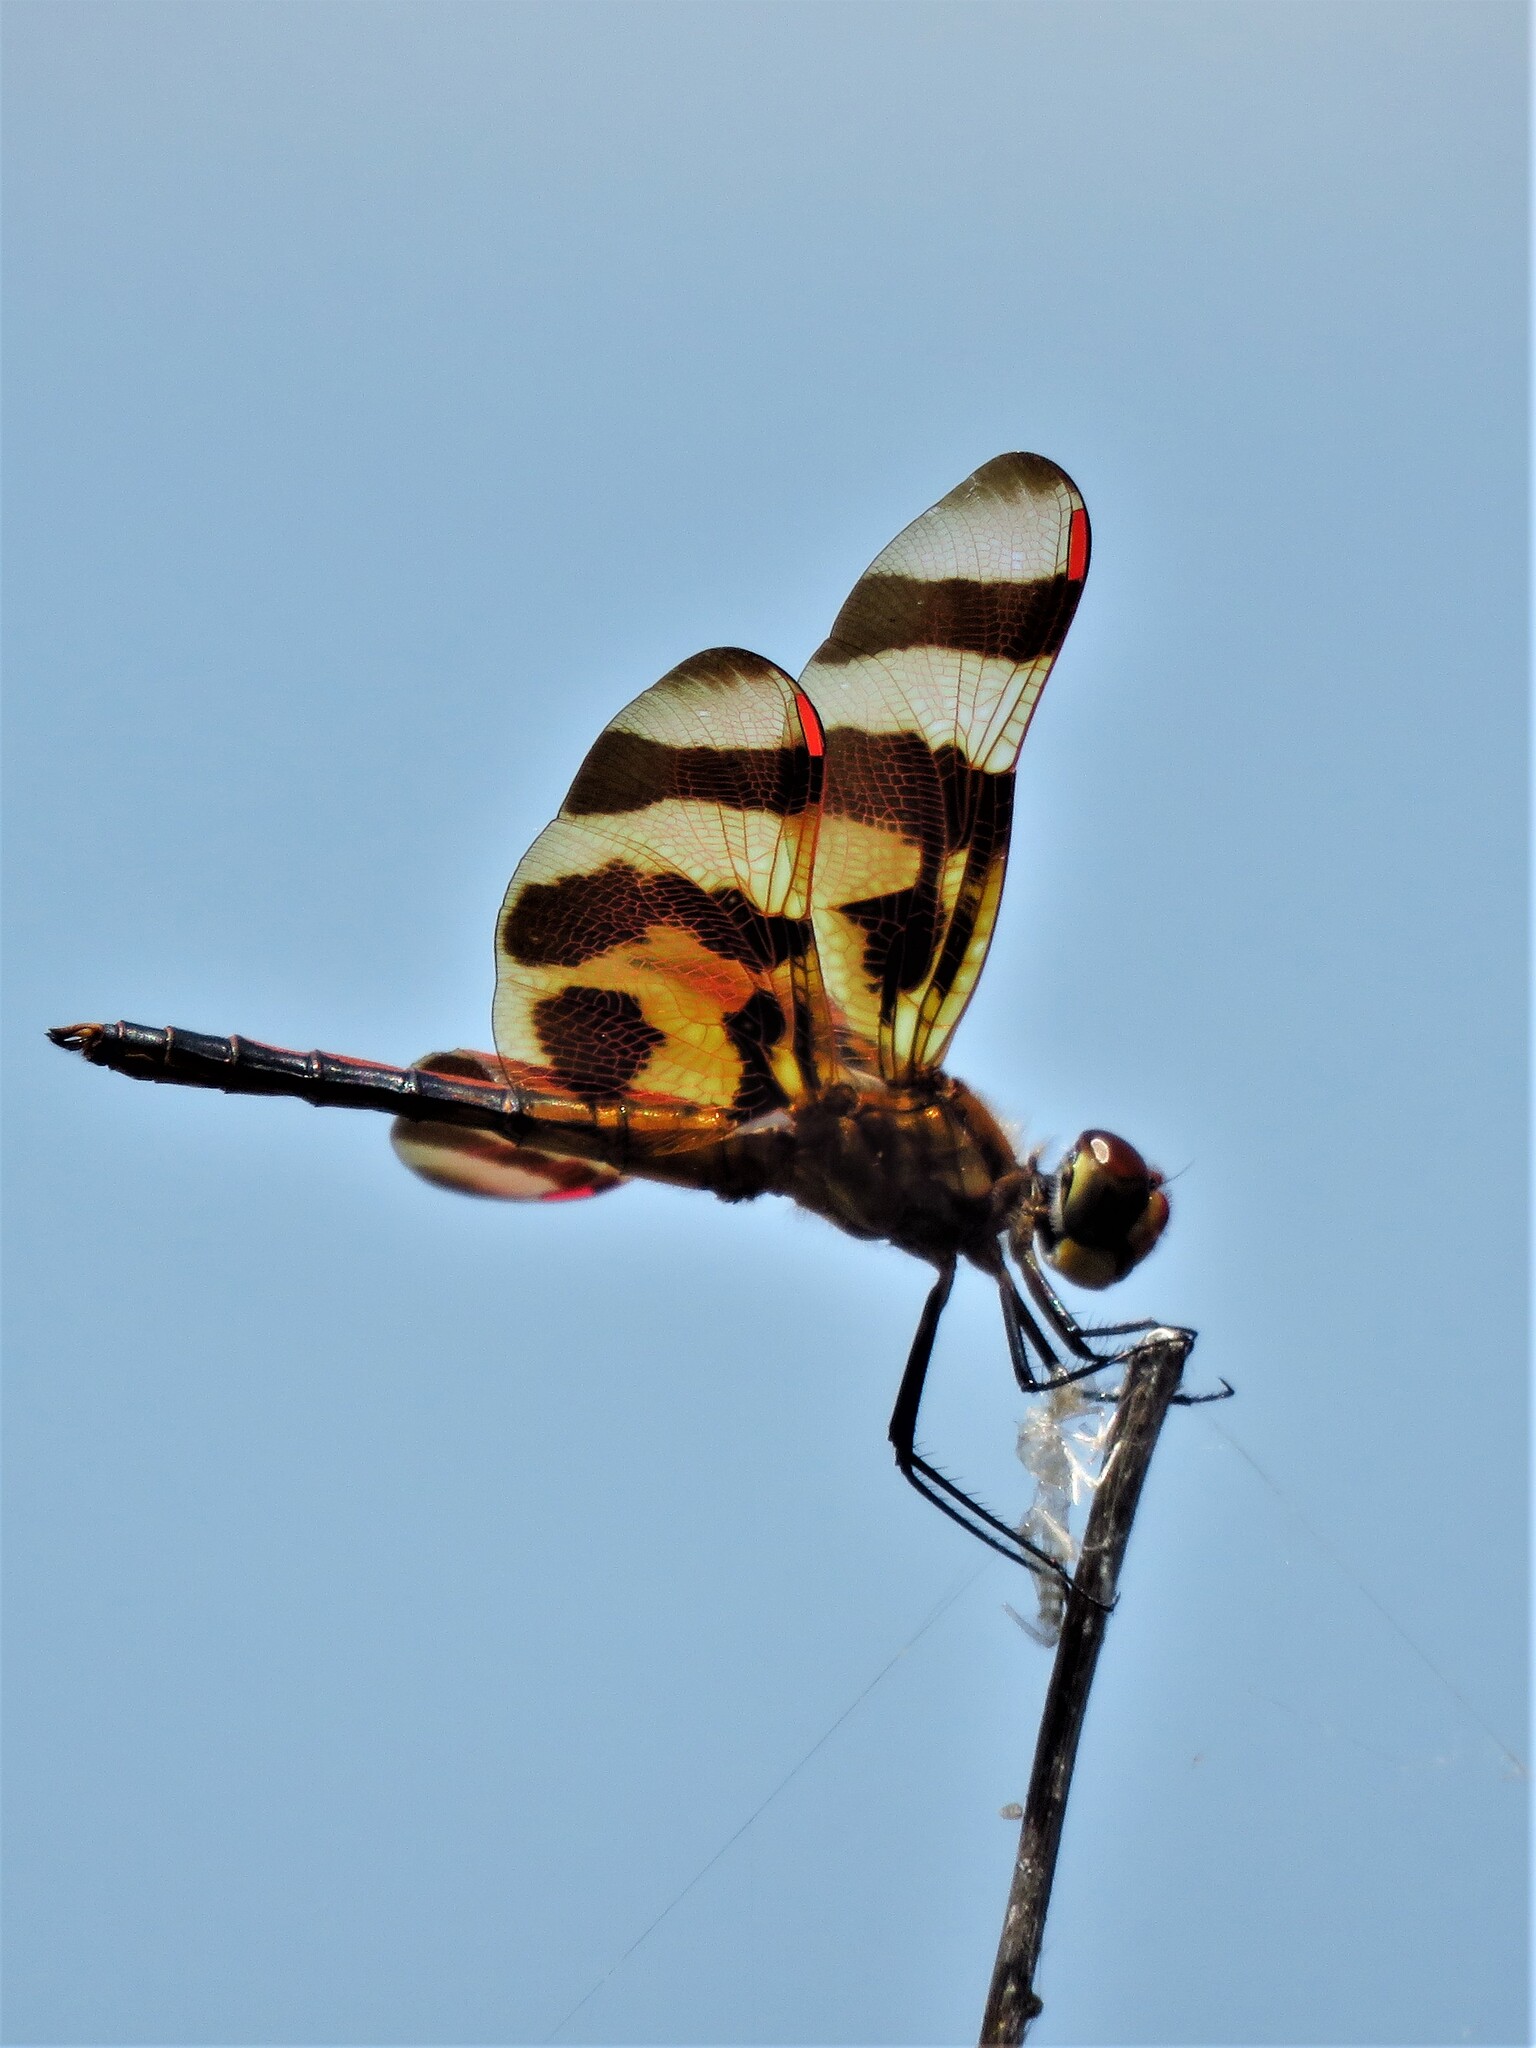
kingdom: Animalia
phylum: Arthropoda
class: Insecta
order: Odonata
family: Libellulidae
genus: Celithemis
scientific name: Celithemis eponina
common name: Halloween pennant
